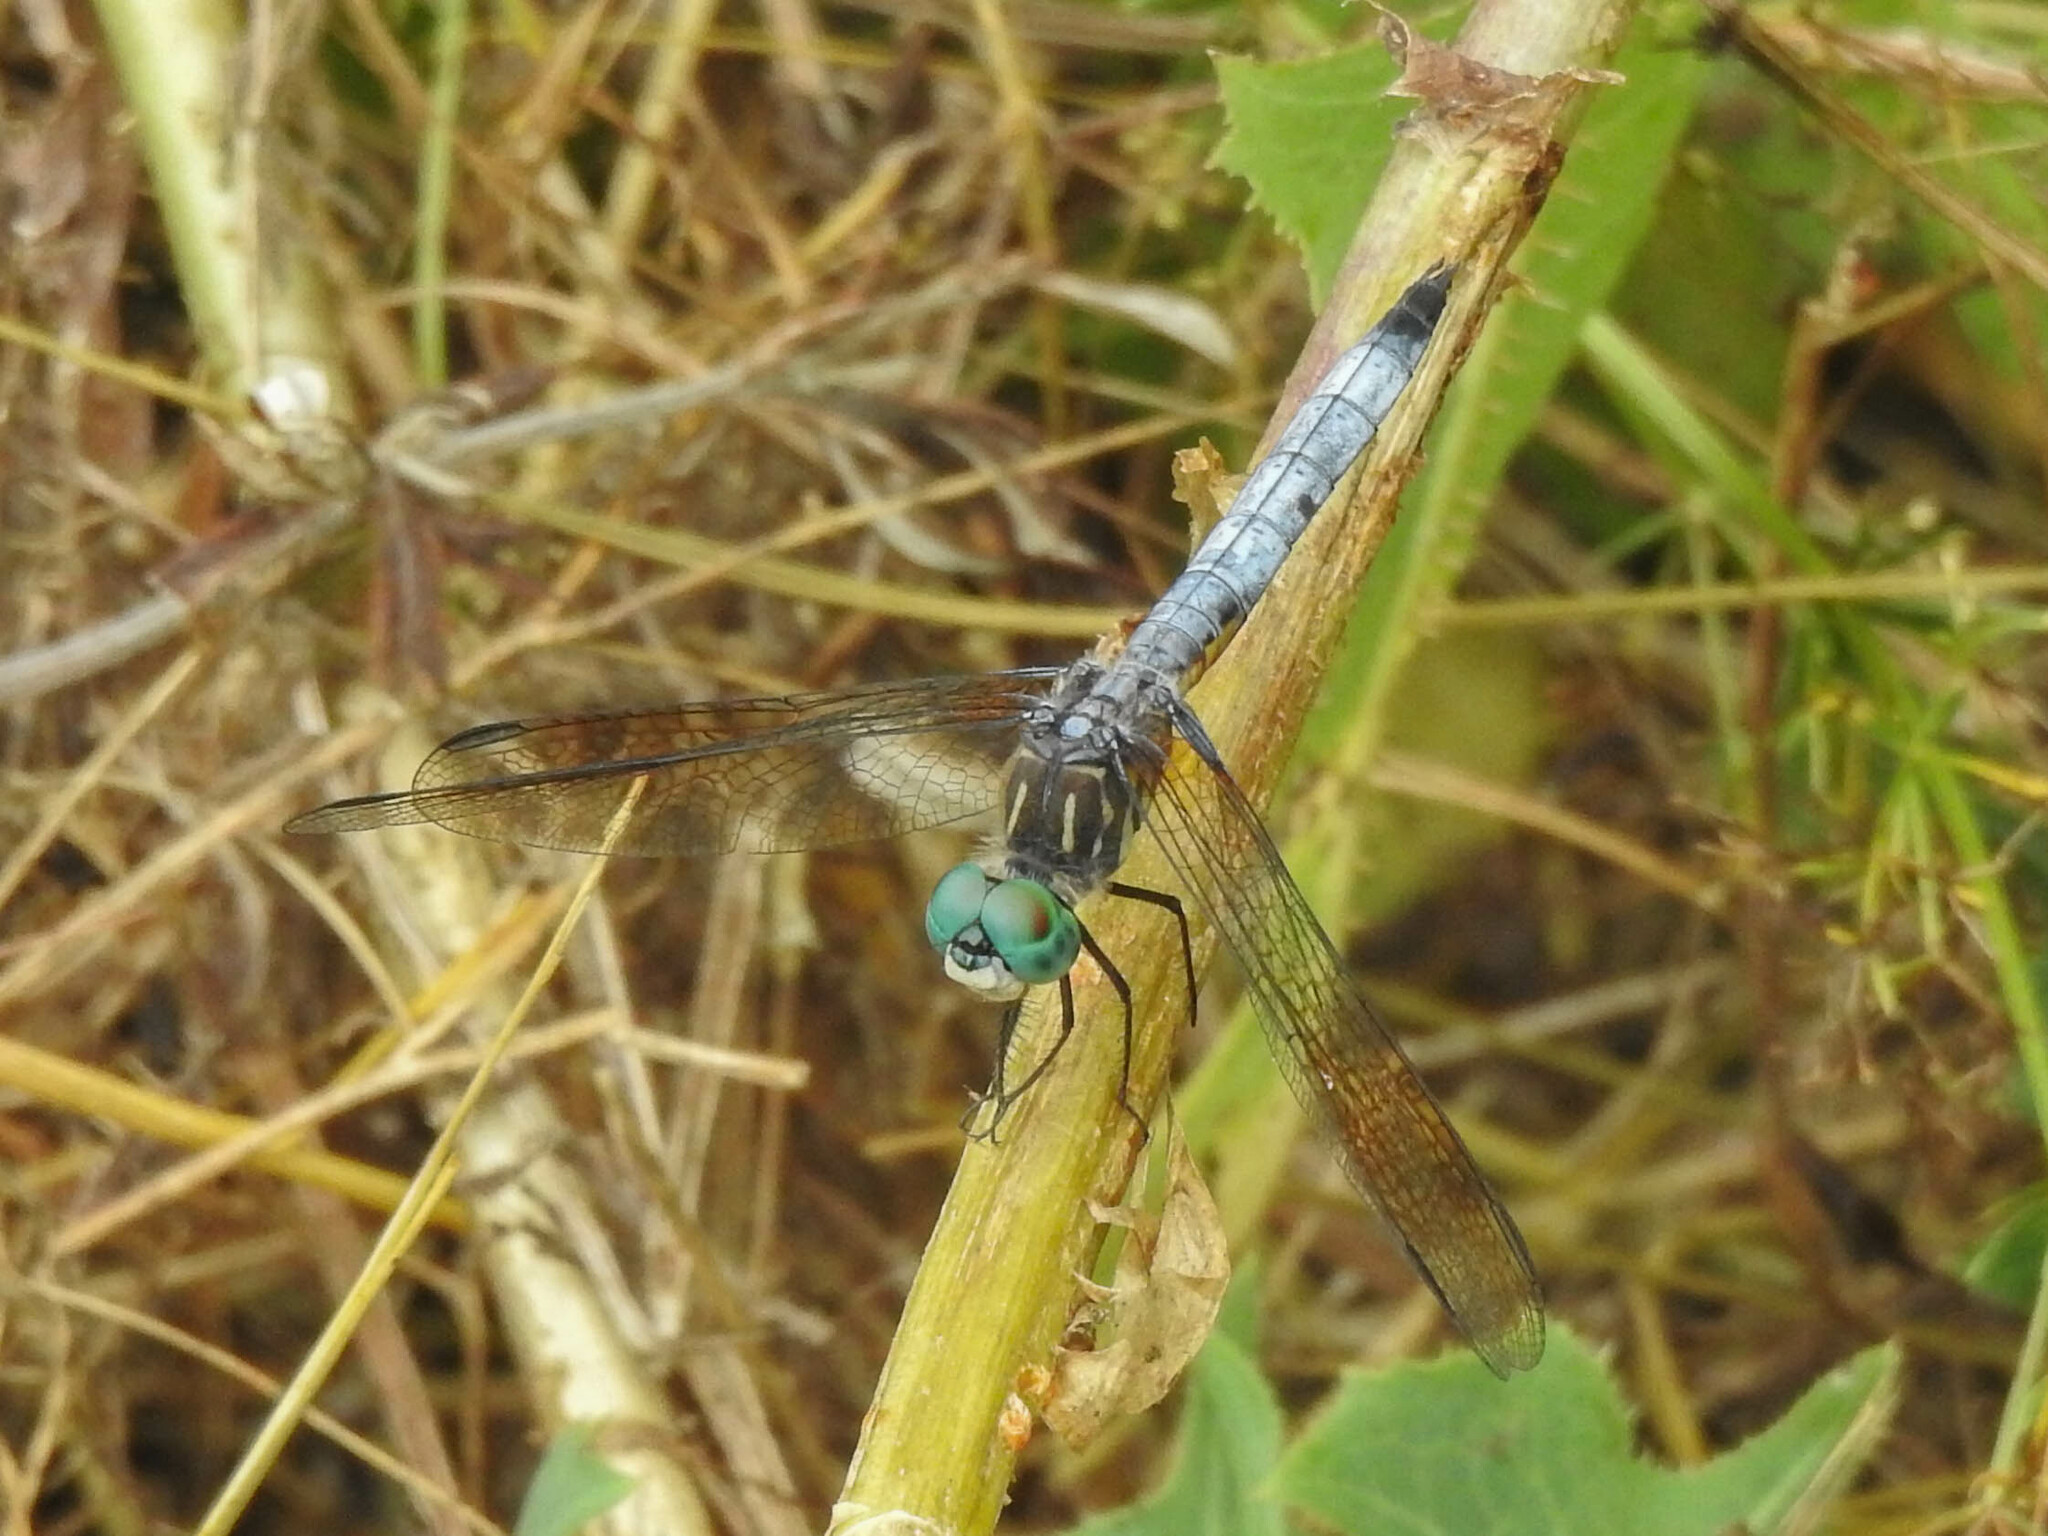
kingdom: Animalia
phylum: Arthropoda
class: Insecta
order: Odonata
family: Libellulidae
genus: Pachydiplax
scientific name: Pachydiplax longipennis
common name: Blue dasher
